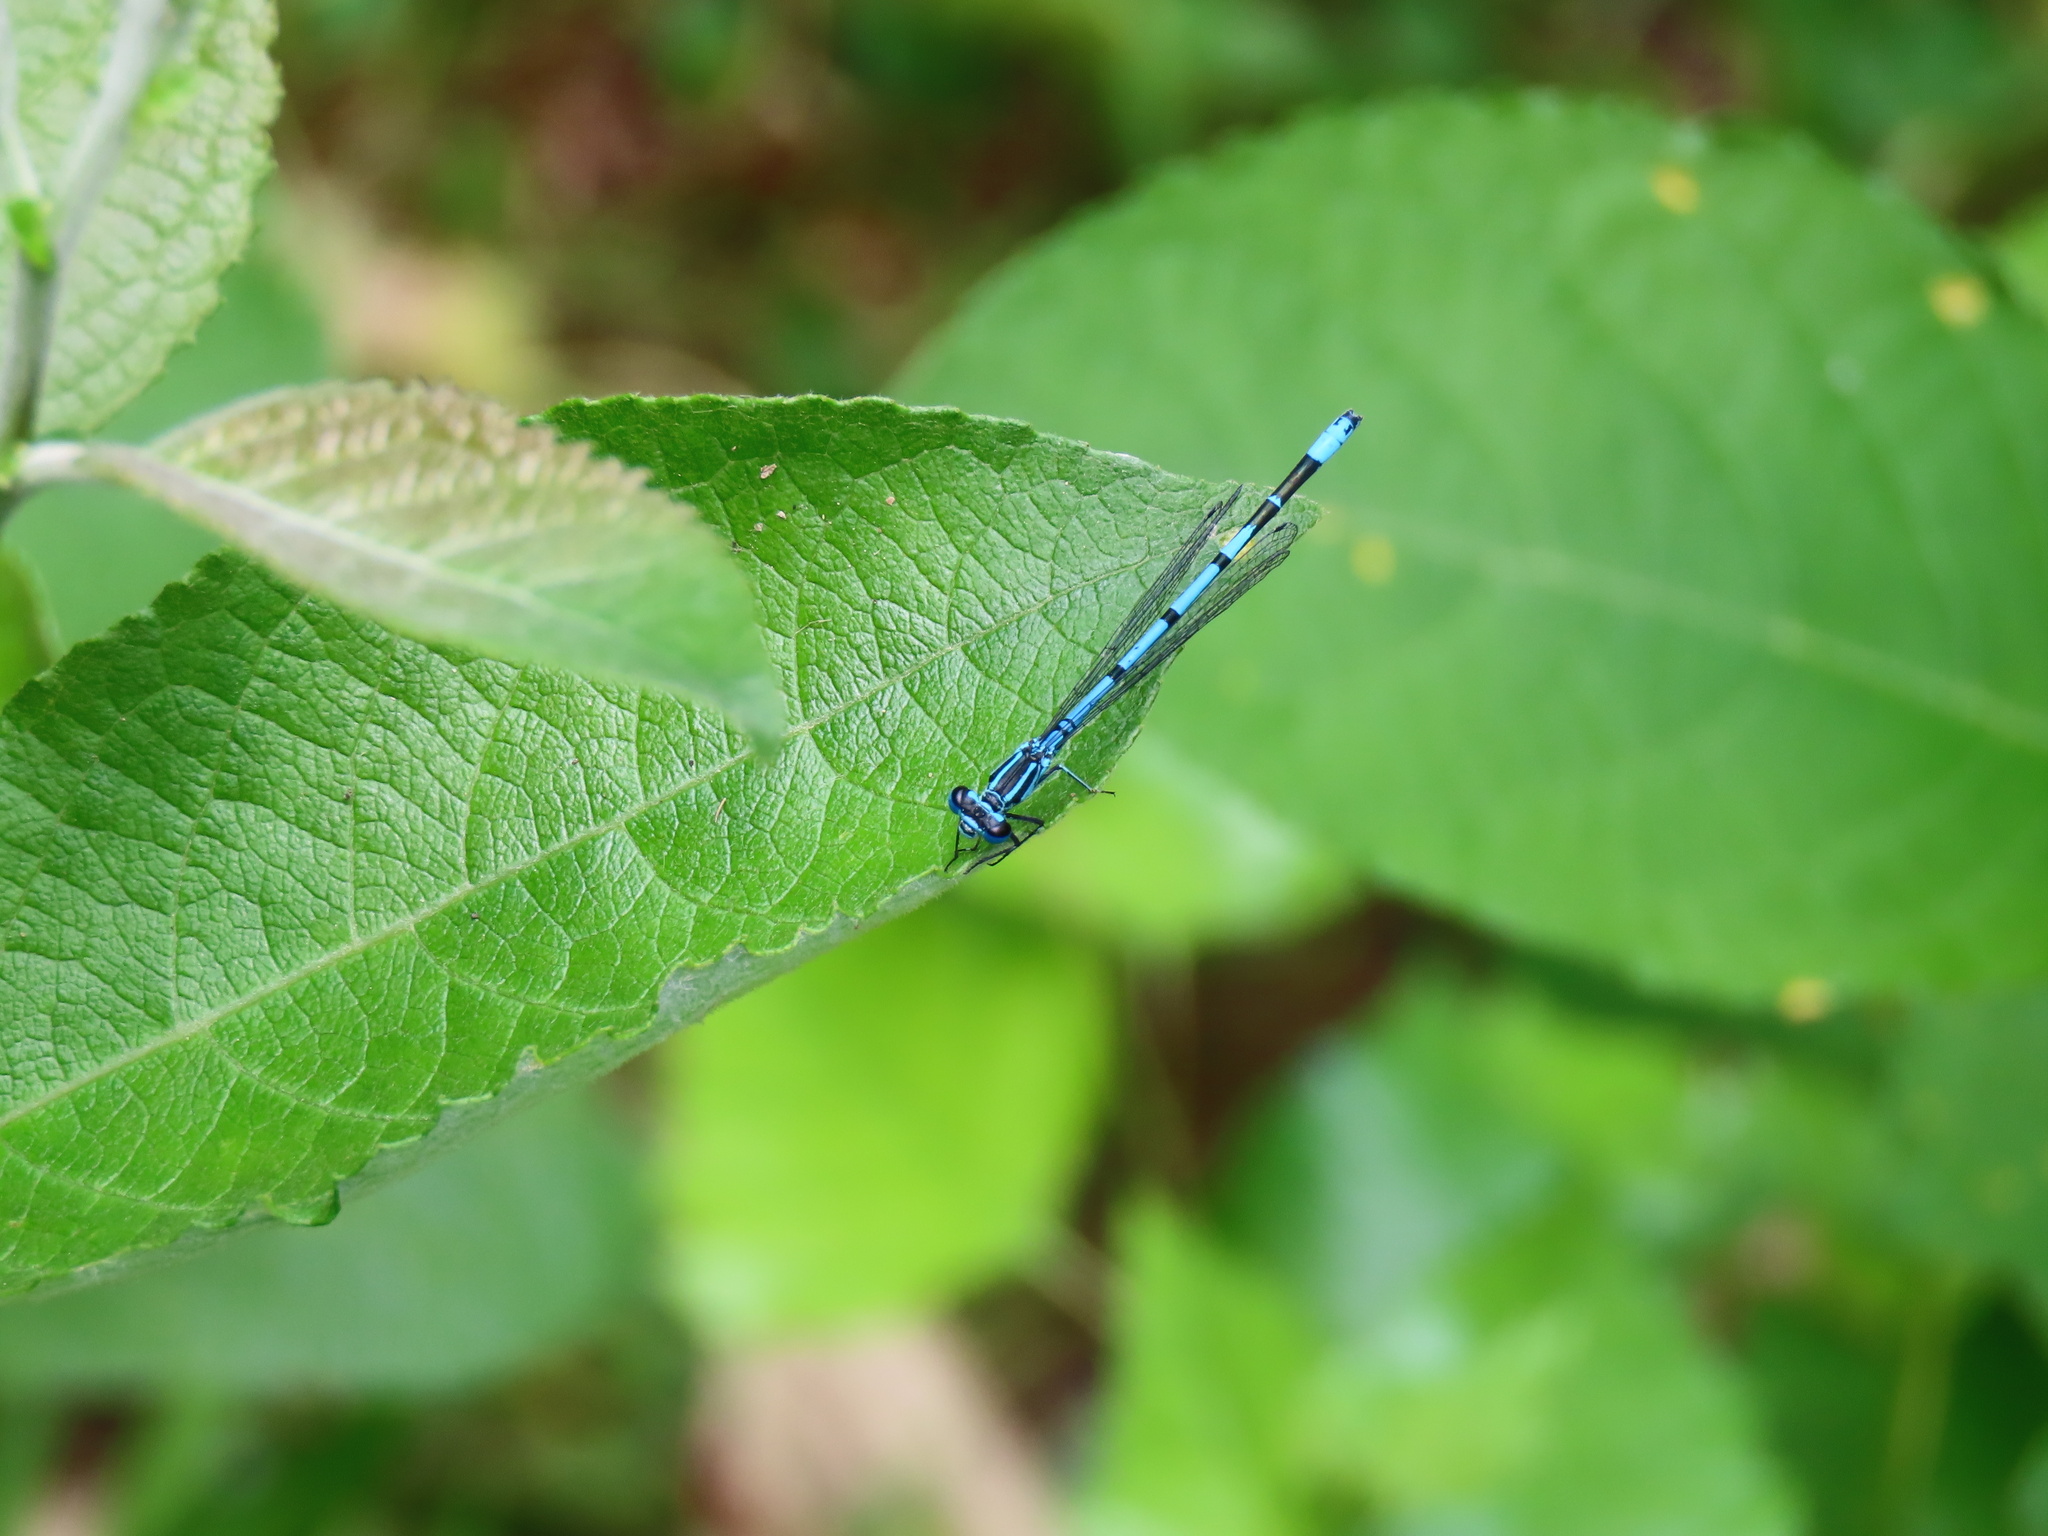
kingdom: Animalia
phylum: Arthropoda
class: Insecta
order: Odonata
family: Coenagrionidae
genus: Coenagrion
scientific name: Coenagrion puella
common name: Azure damselfly
